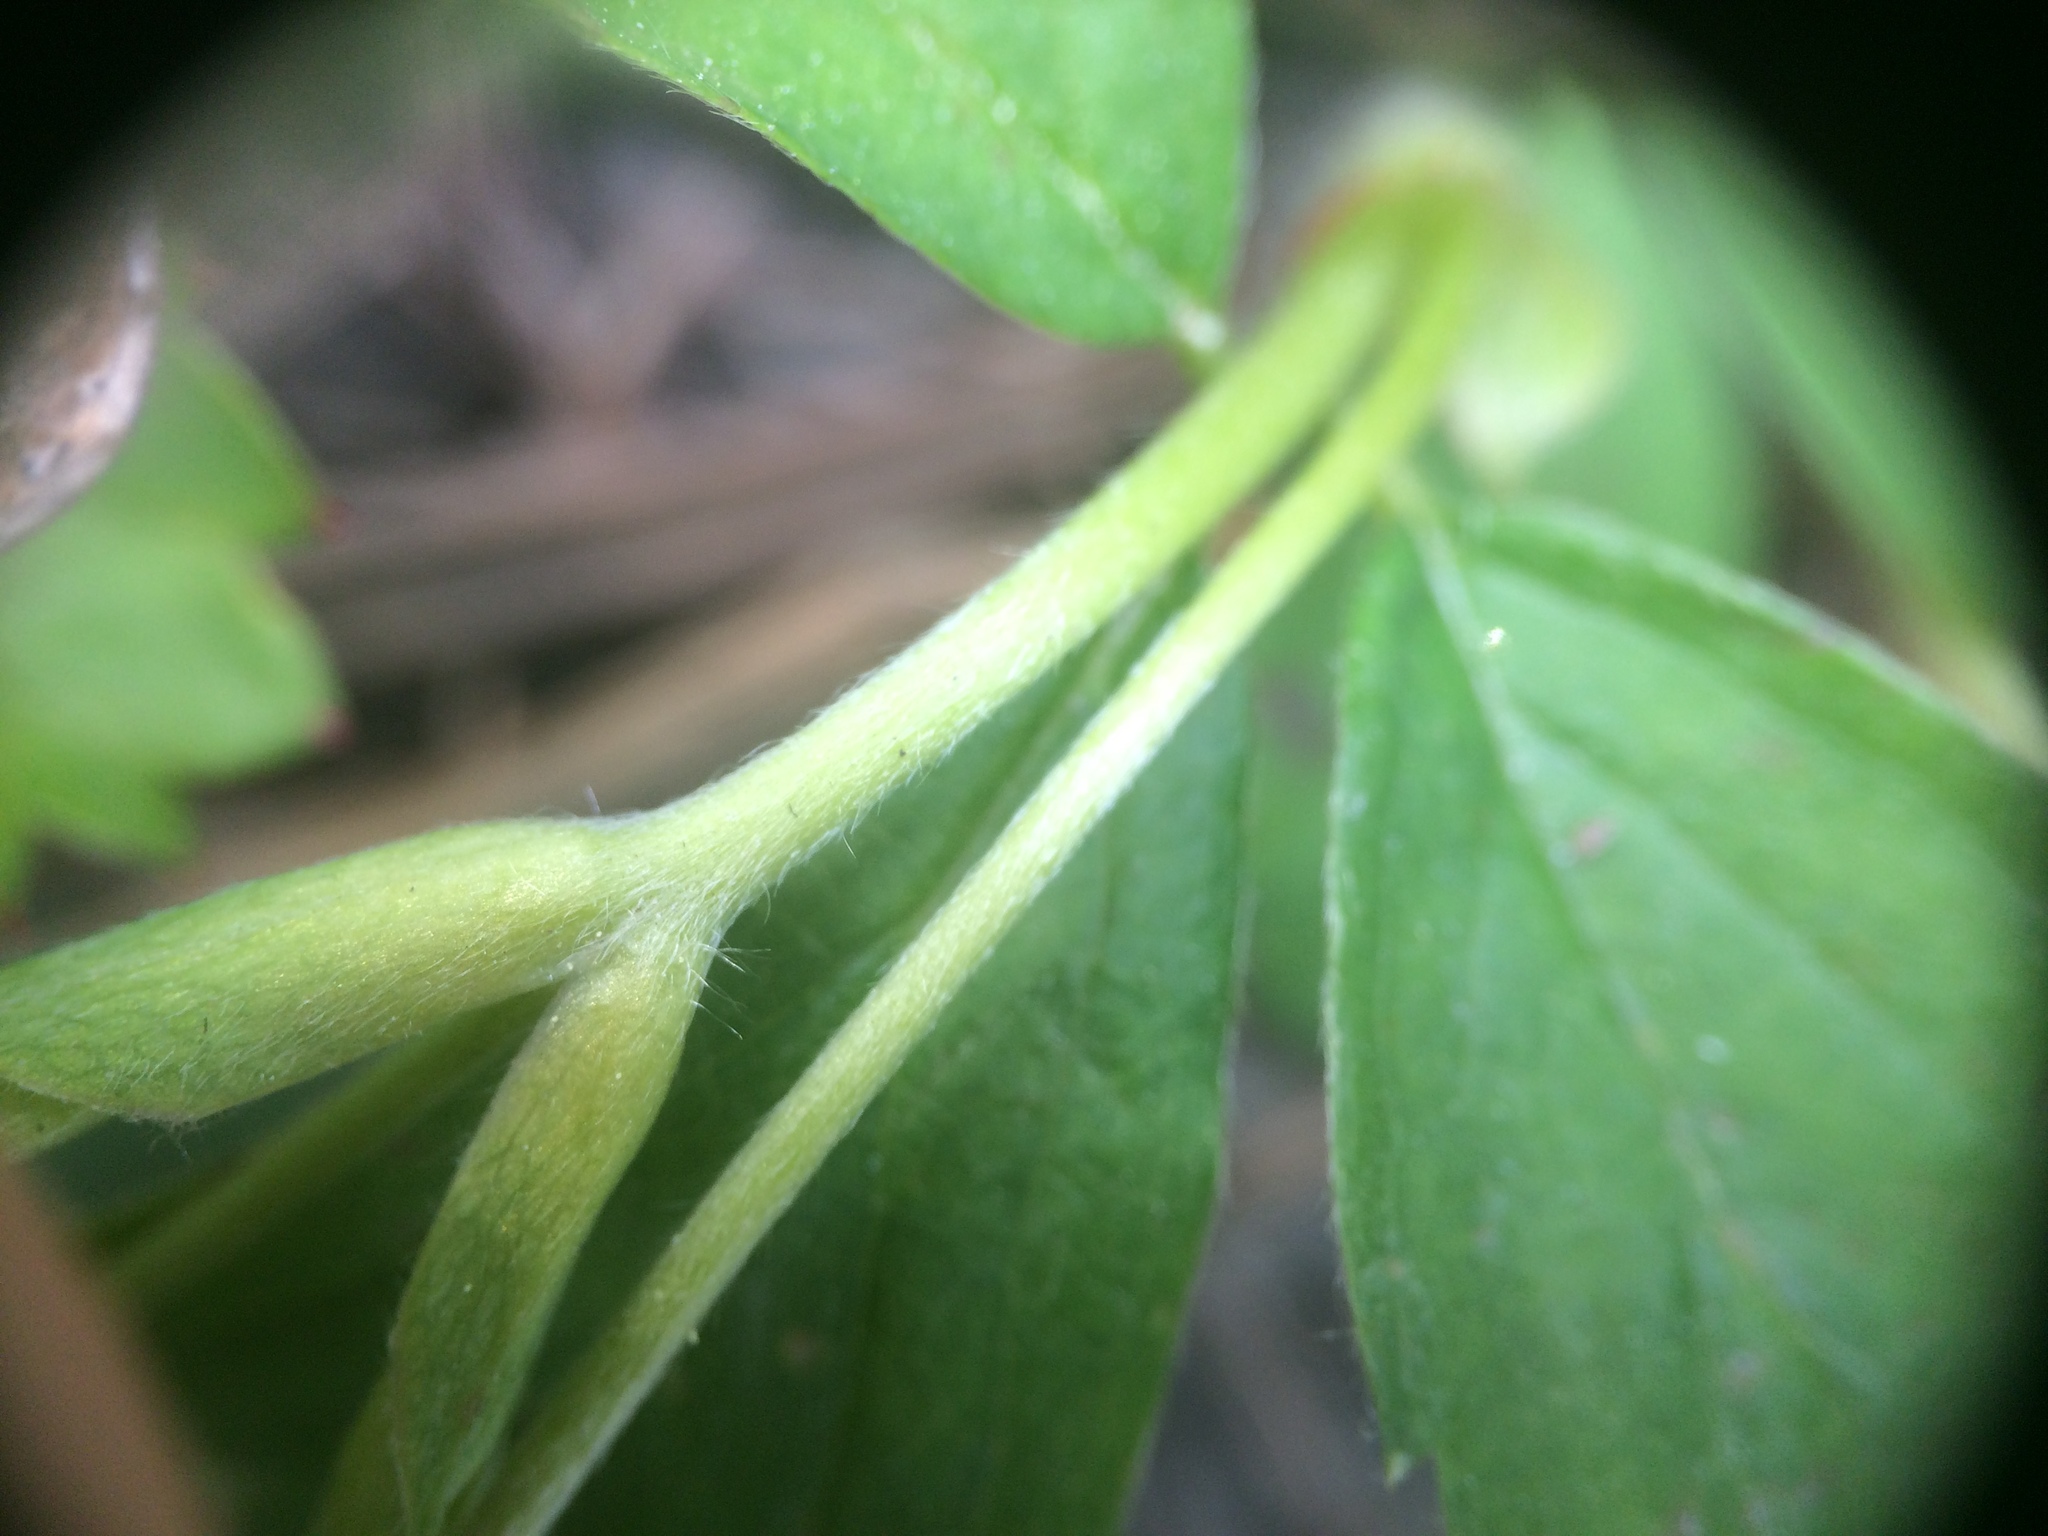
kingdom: Plantae
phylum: Tracheophyta
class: Magnoliopsida
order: Rosales
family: Rosaceae
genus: Fragaria
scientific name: Fragaria virginiana
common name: Thickleaved wild strawberry
